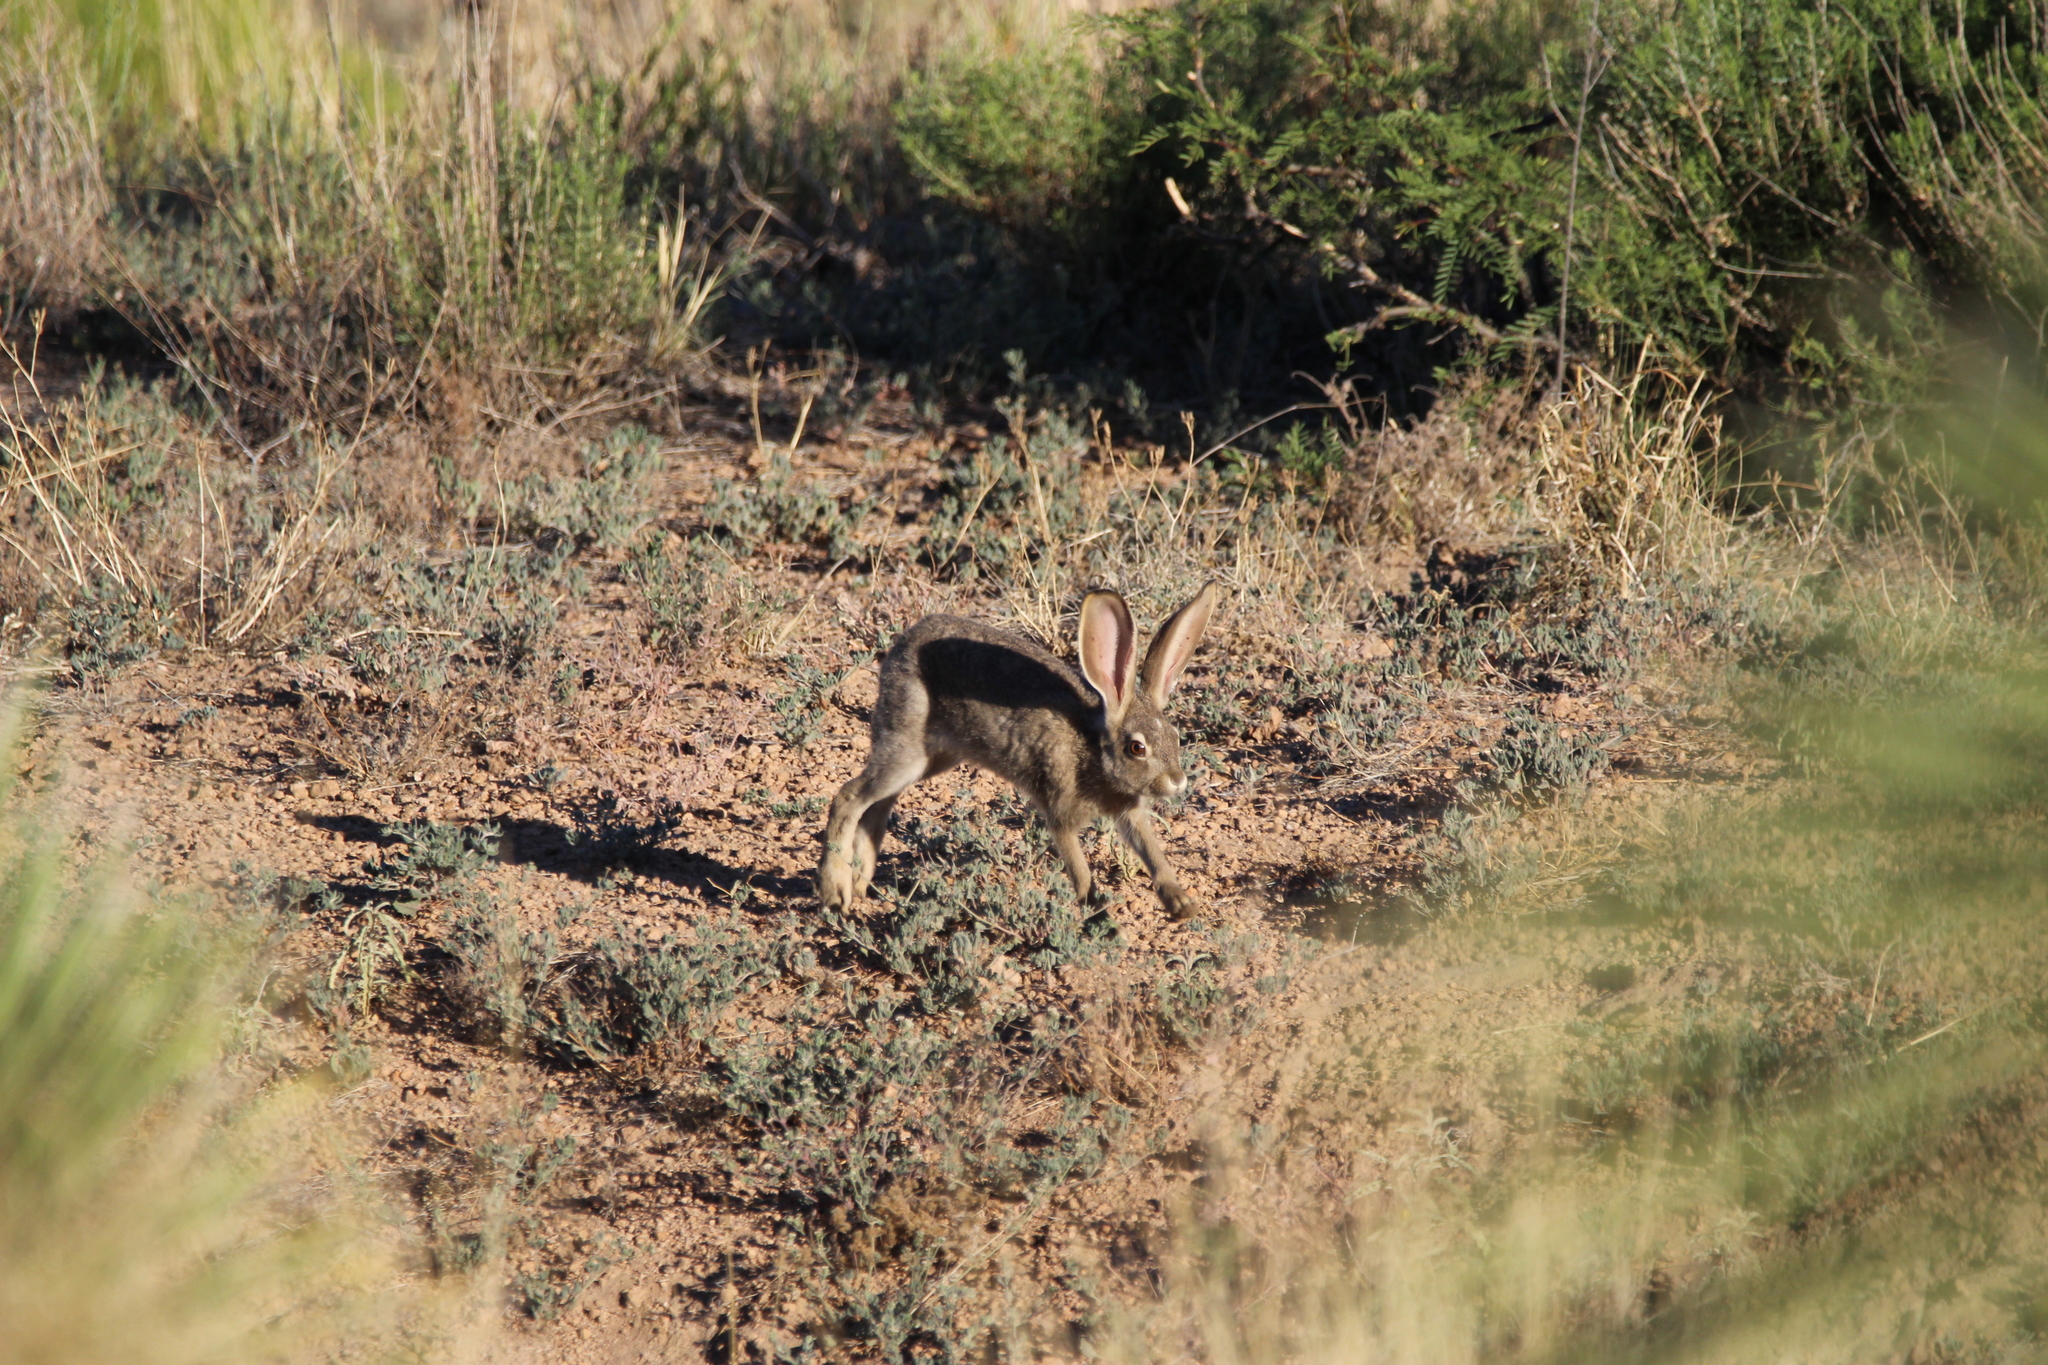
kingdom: Animalia
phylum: Chordata
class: Mammalia
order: Lagomorpha
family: Leporidae
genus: Lepus
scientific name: Lepus californicus
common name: Black-tailed jackrabbit
